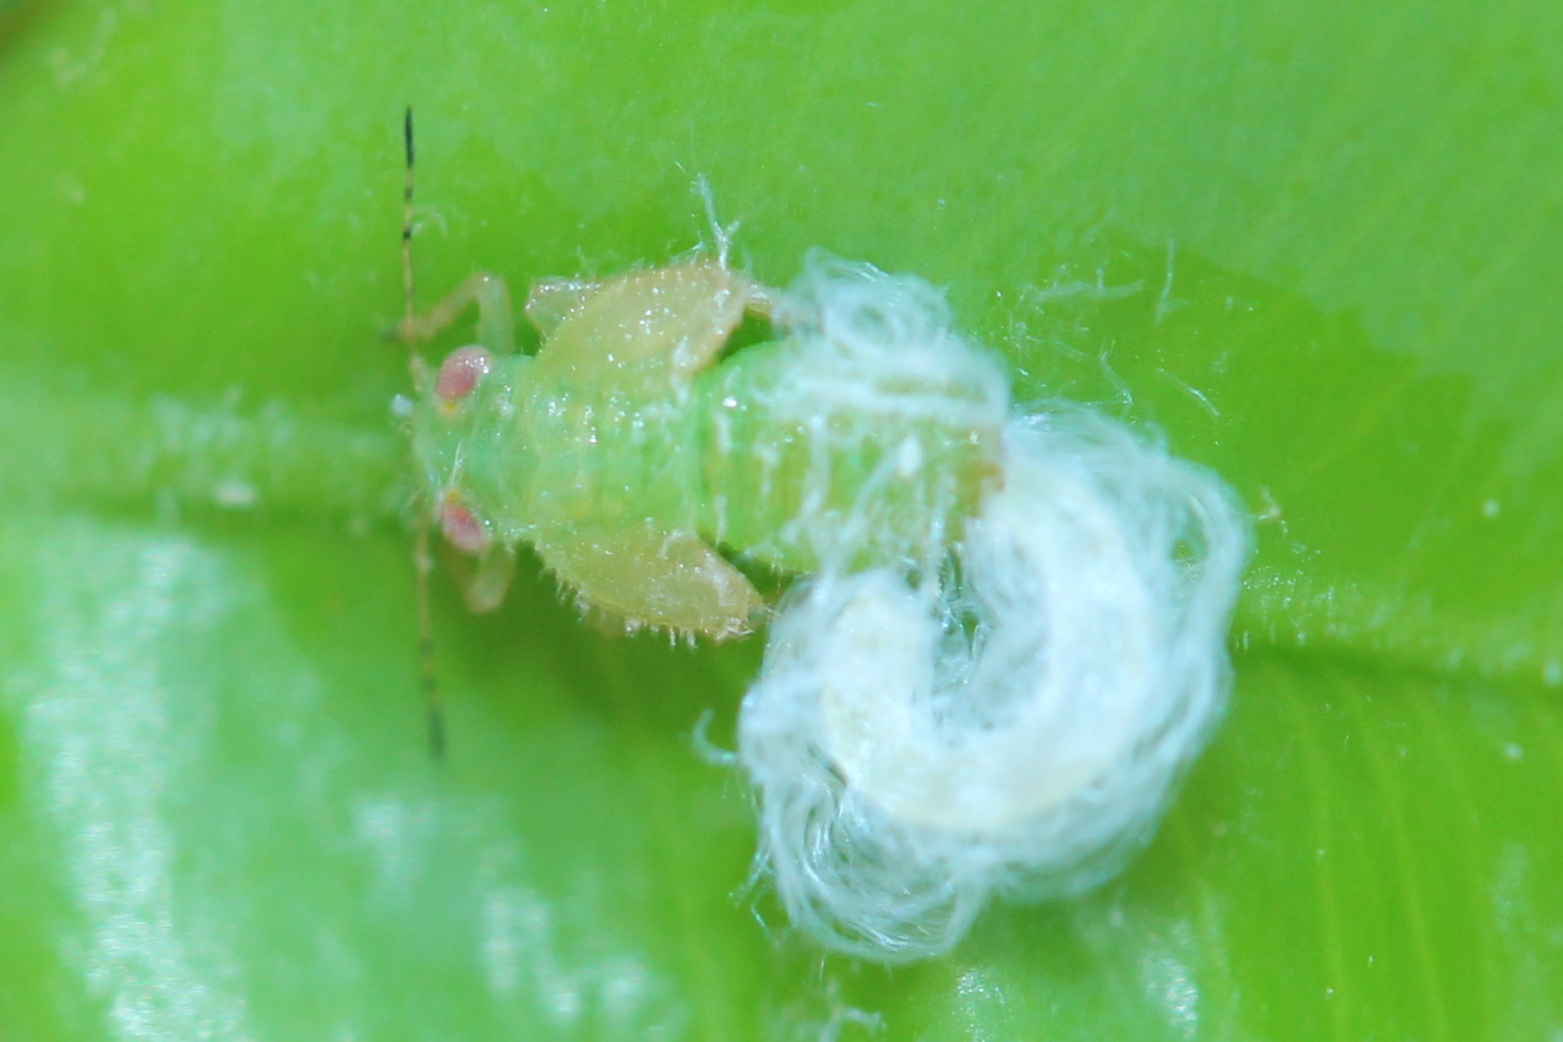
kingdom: Animalia
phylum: Arthropoda
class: Insecta
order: Hemiptera
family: Psyllidae
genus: Psylla
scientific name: Psylla buxi
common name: Boxwood psyllid
